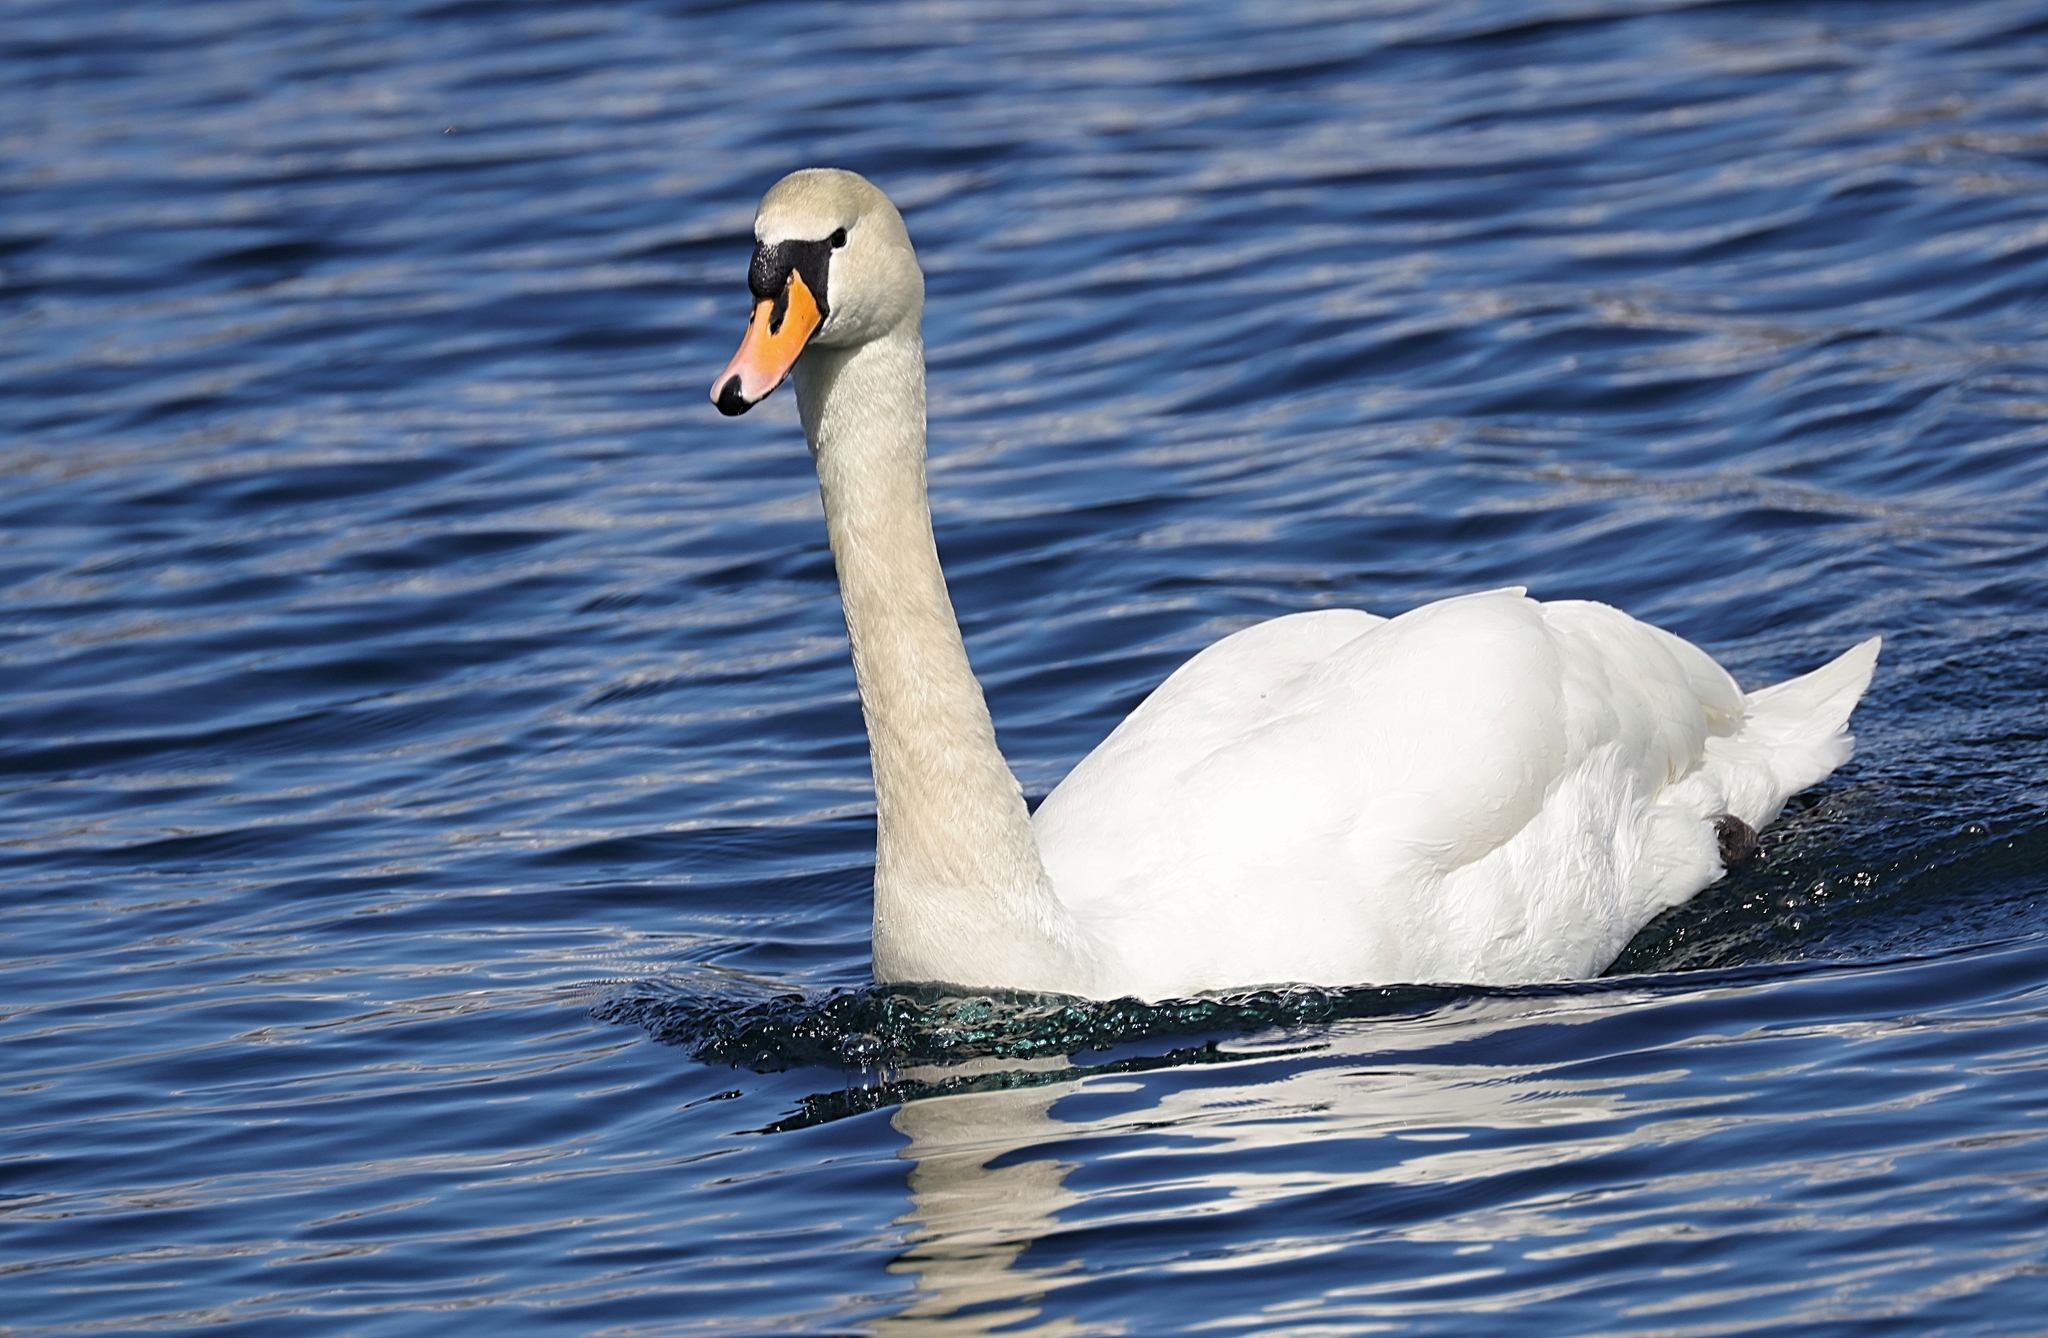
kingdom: Animalia
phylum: Chordata
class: Aves
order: Anseriformes
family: Anatidae
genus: Cygnus
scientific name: Cygnus olor
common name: Mute swan
